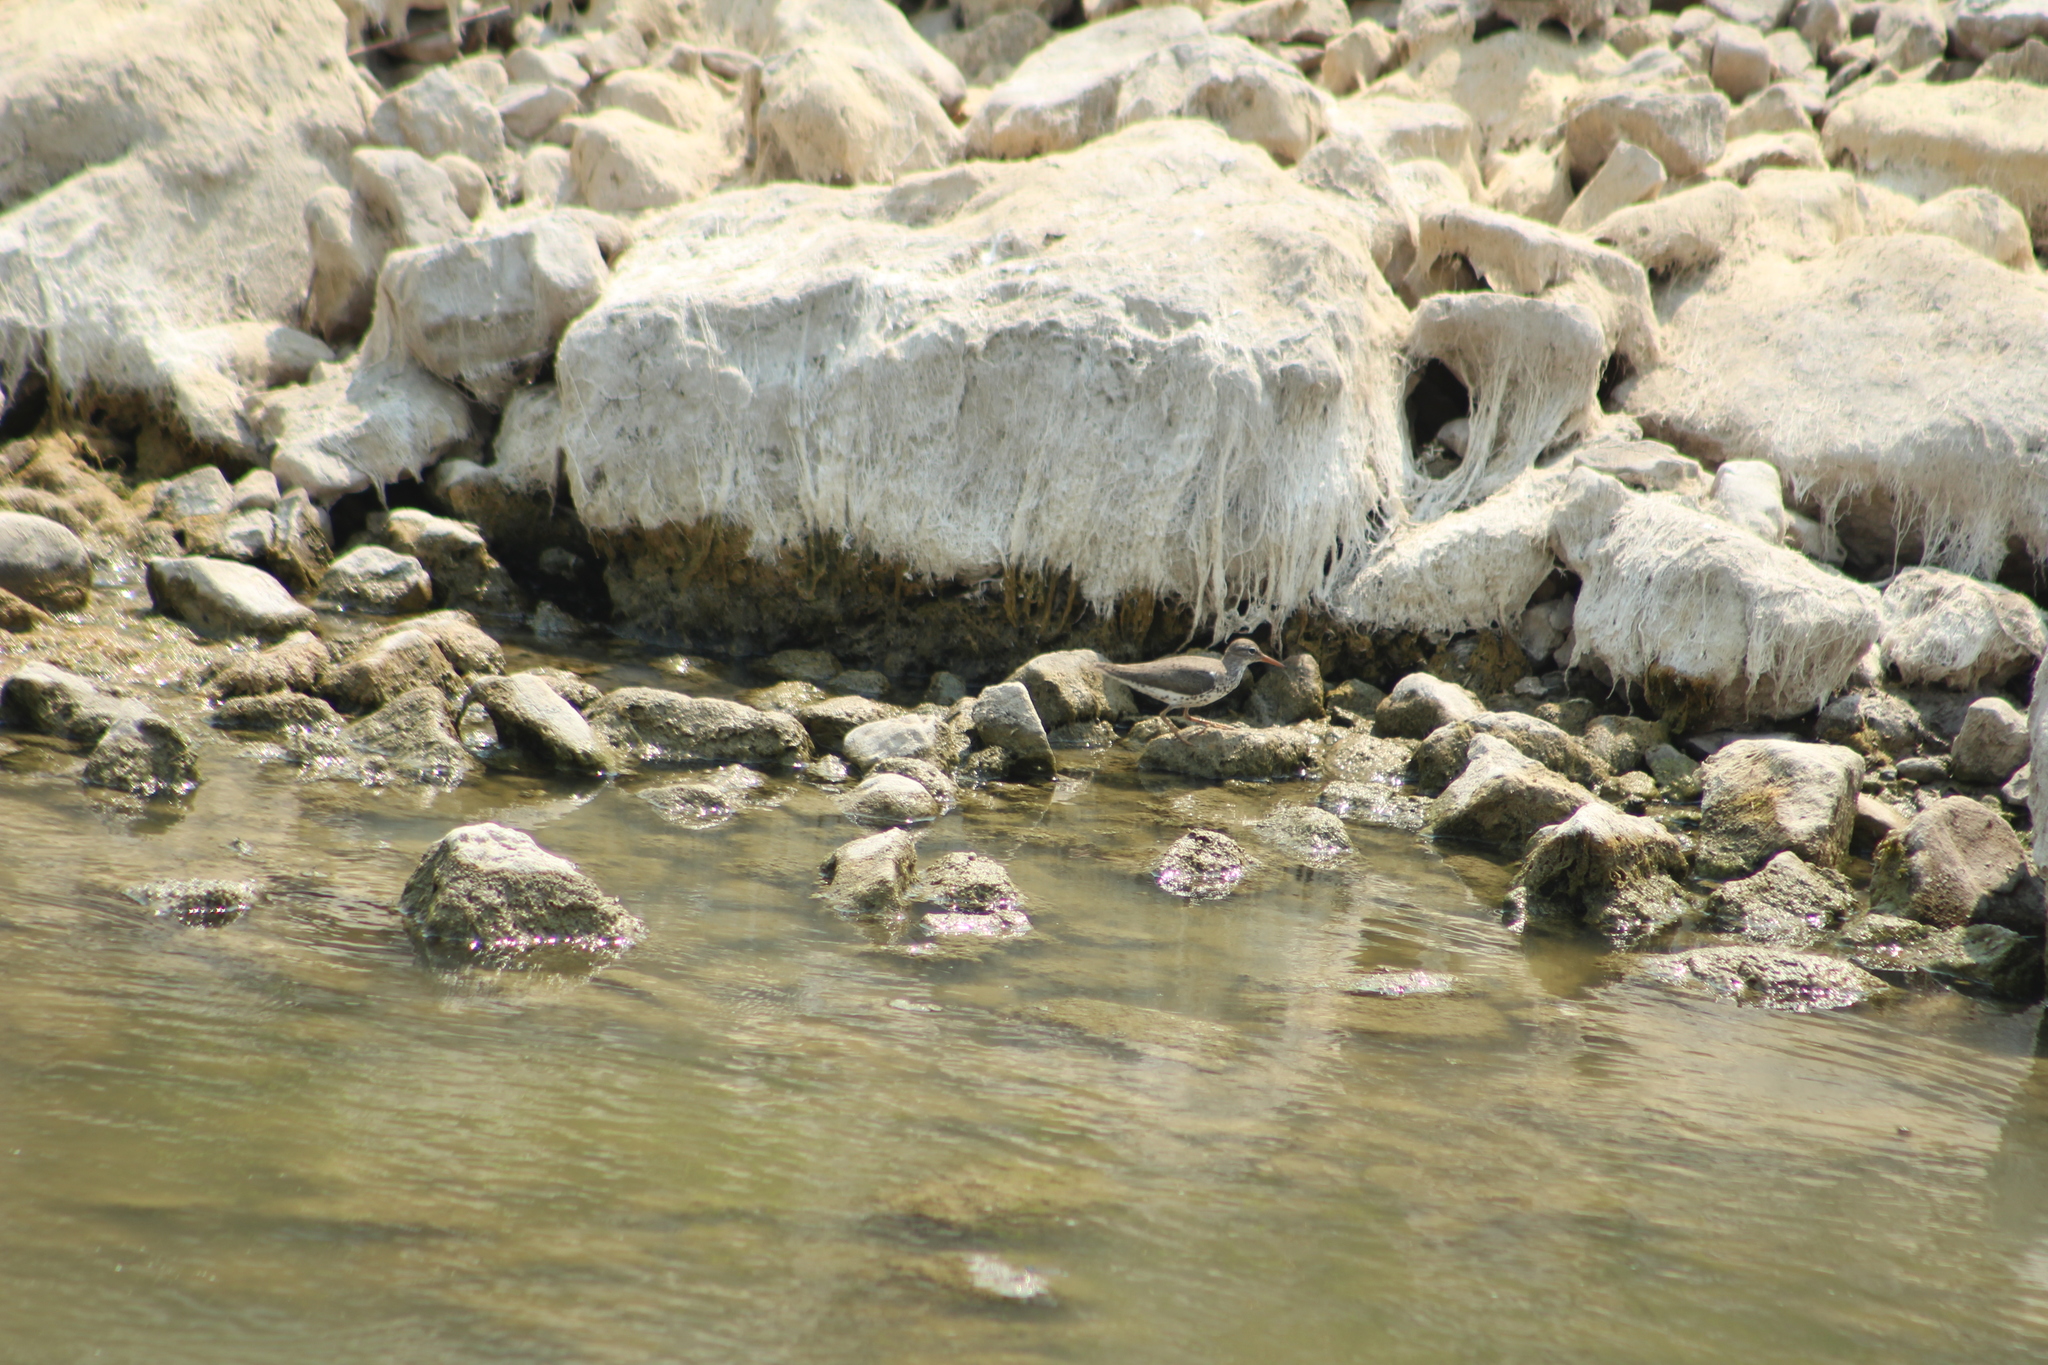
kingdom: Animalia
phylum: Chordata
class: Aves
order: Charadriiformes
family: Scolopacidae
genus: Actitis
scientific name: Actitis macularius
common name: Spotted sandpiper
